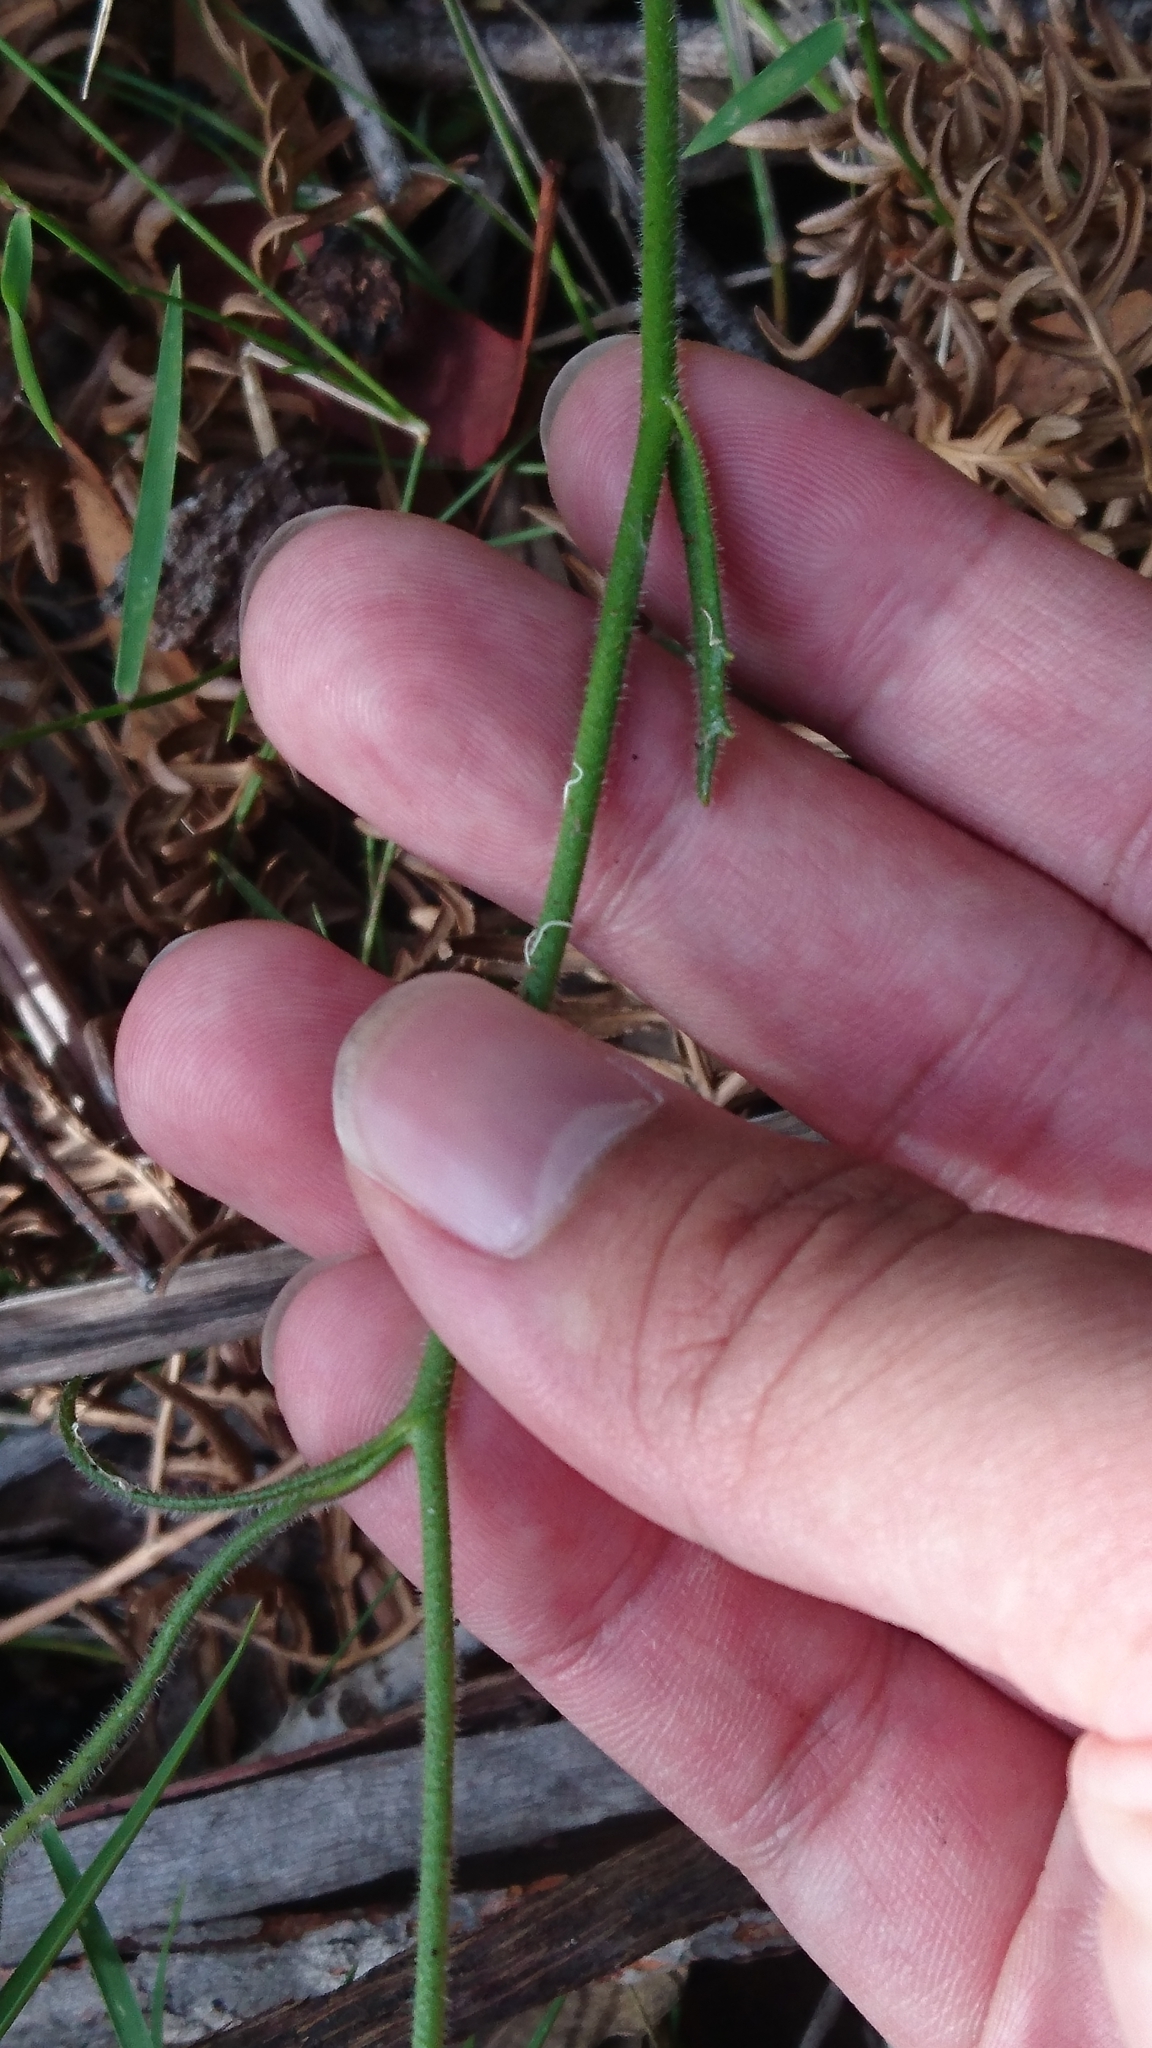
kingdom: Plantae
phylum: Tracheophyta
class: Magnoliopsida
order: Asterales
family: Goodeniaceae
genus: Scaevola
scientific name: Scaevola ramosissima
